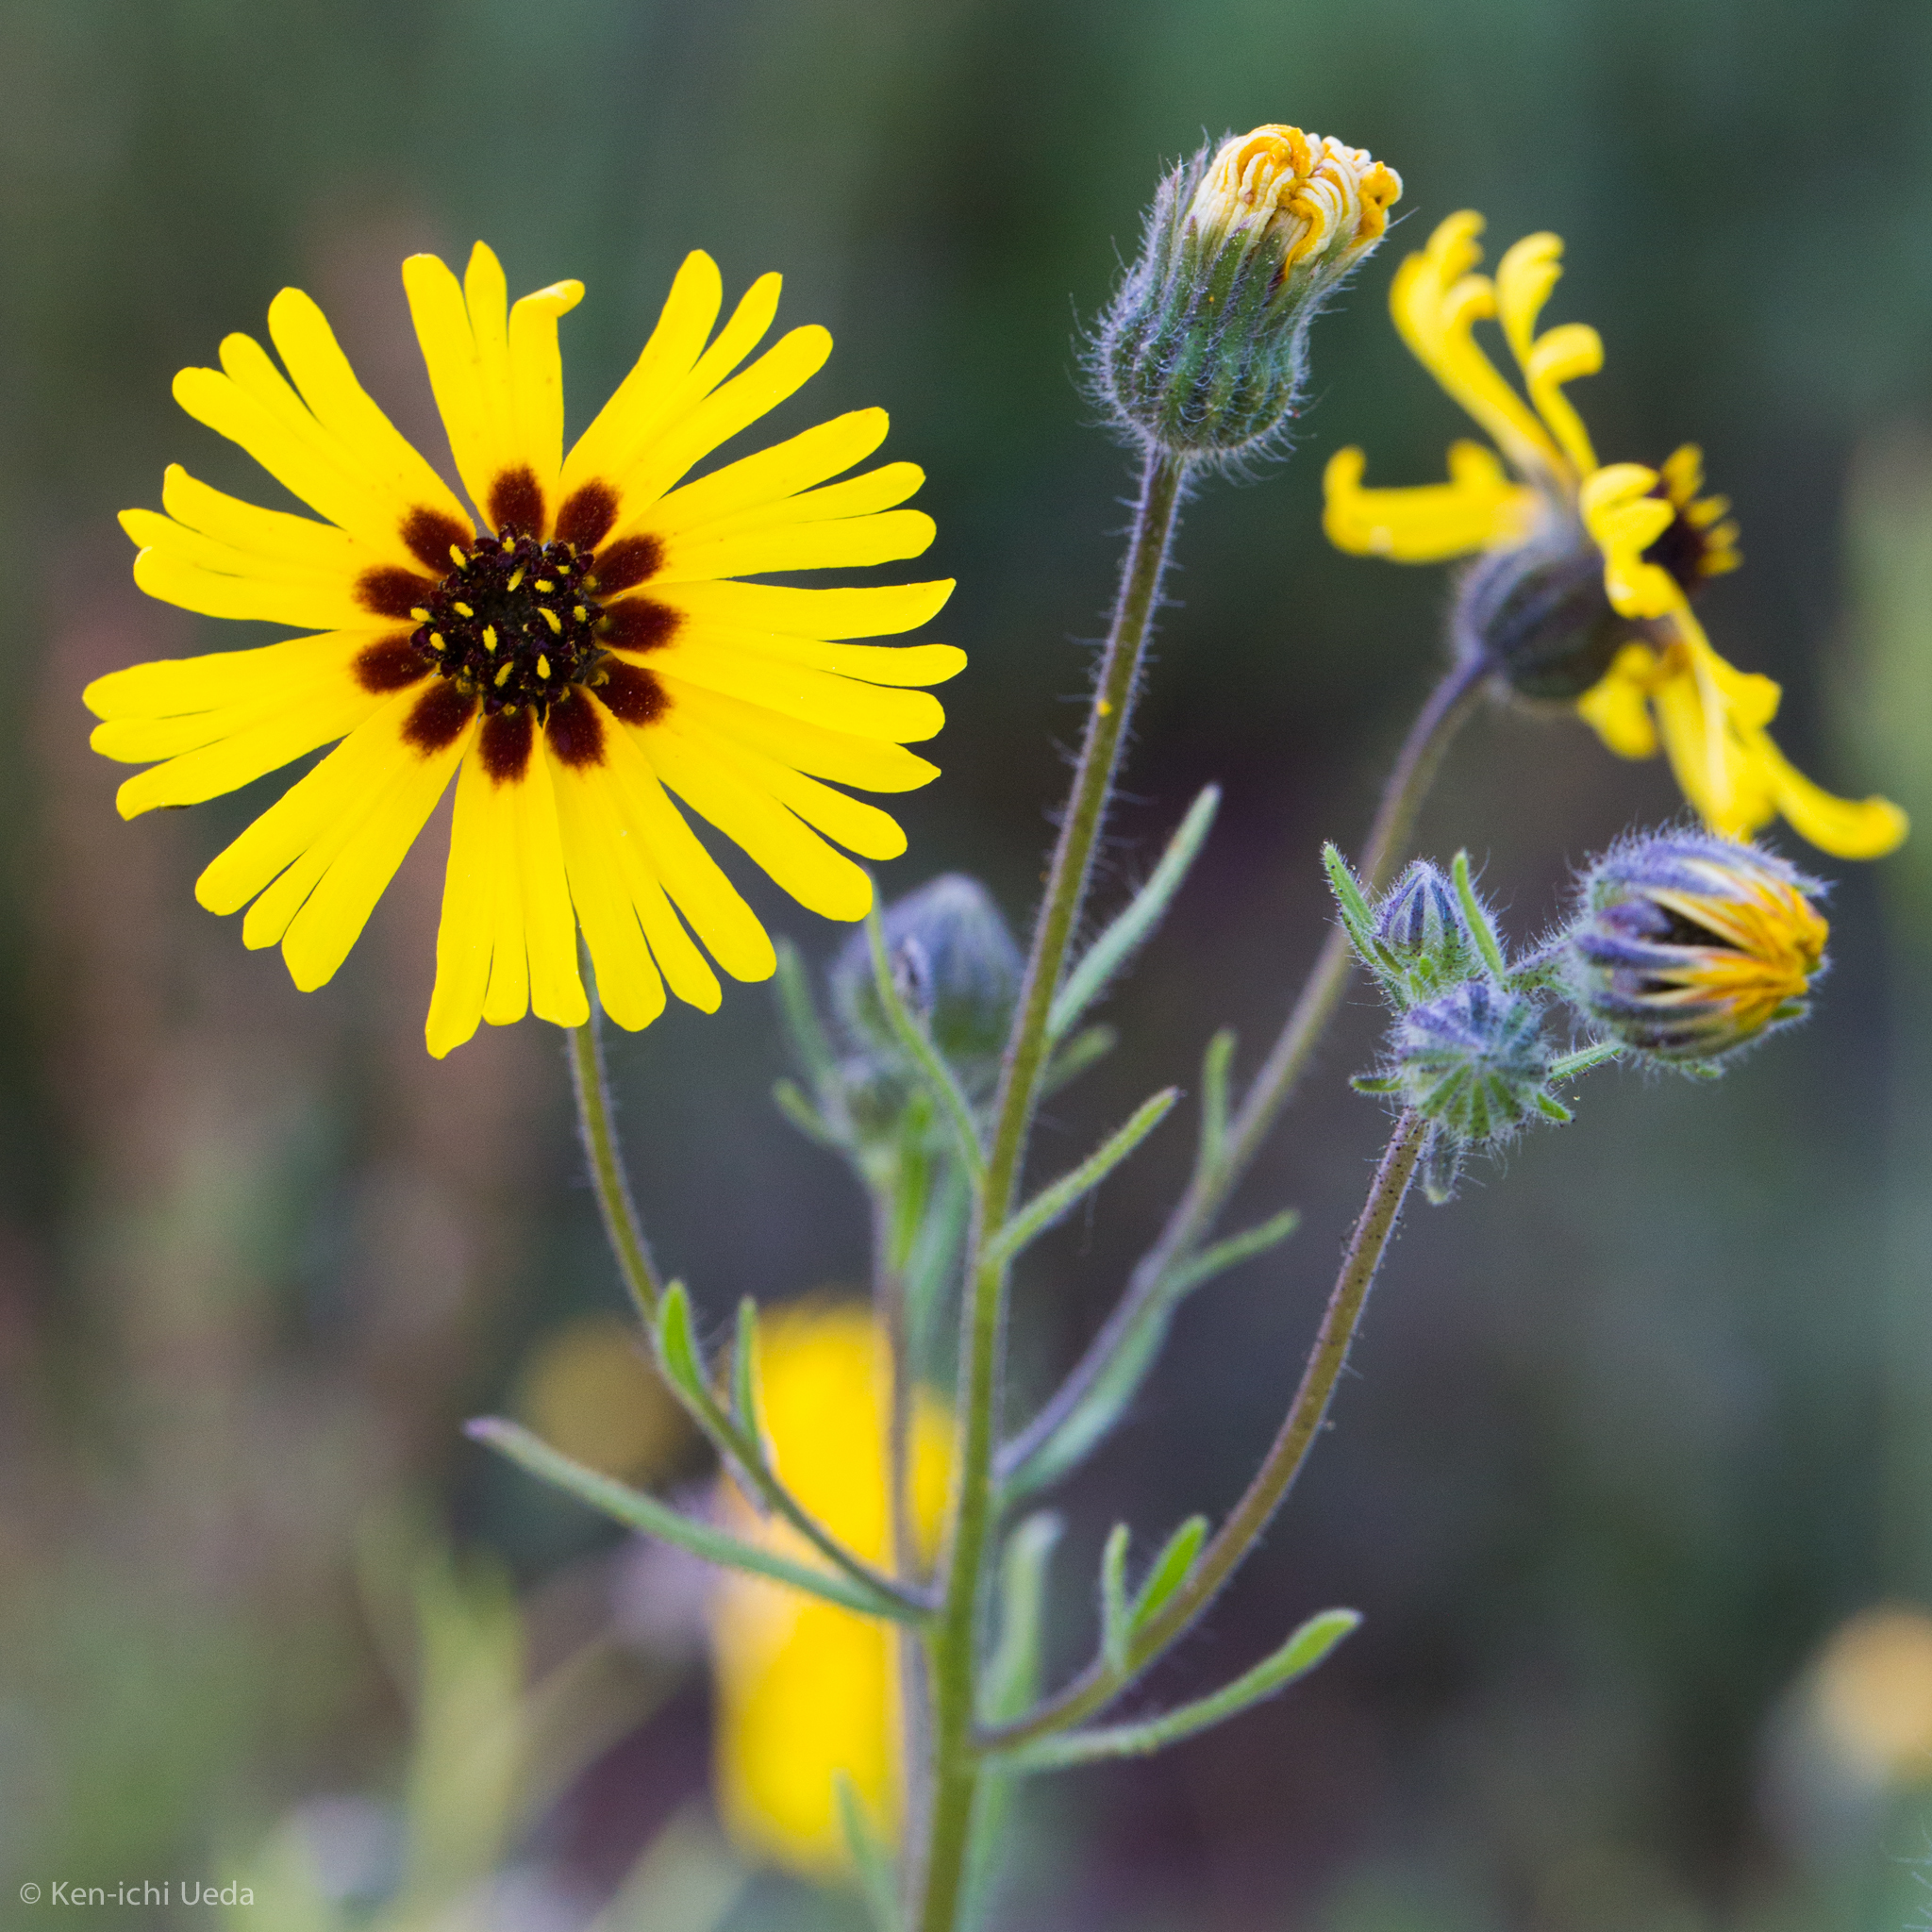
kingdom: Plantae
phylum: Tracheophyta
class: Magnoliopsida
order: Asterales
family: Asteraceae
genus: Madia
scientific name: Madia elegans
